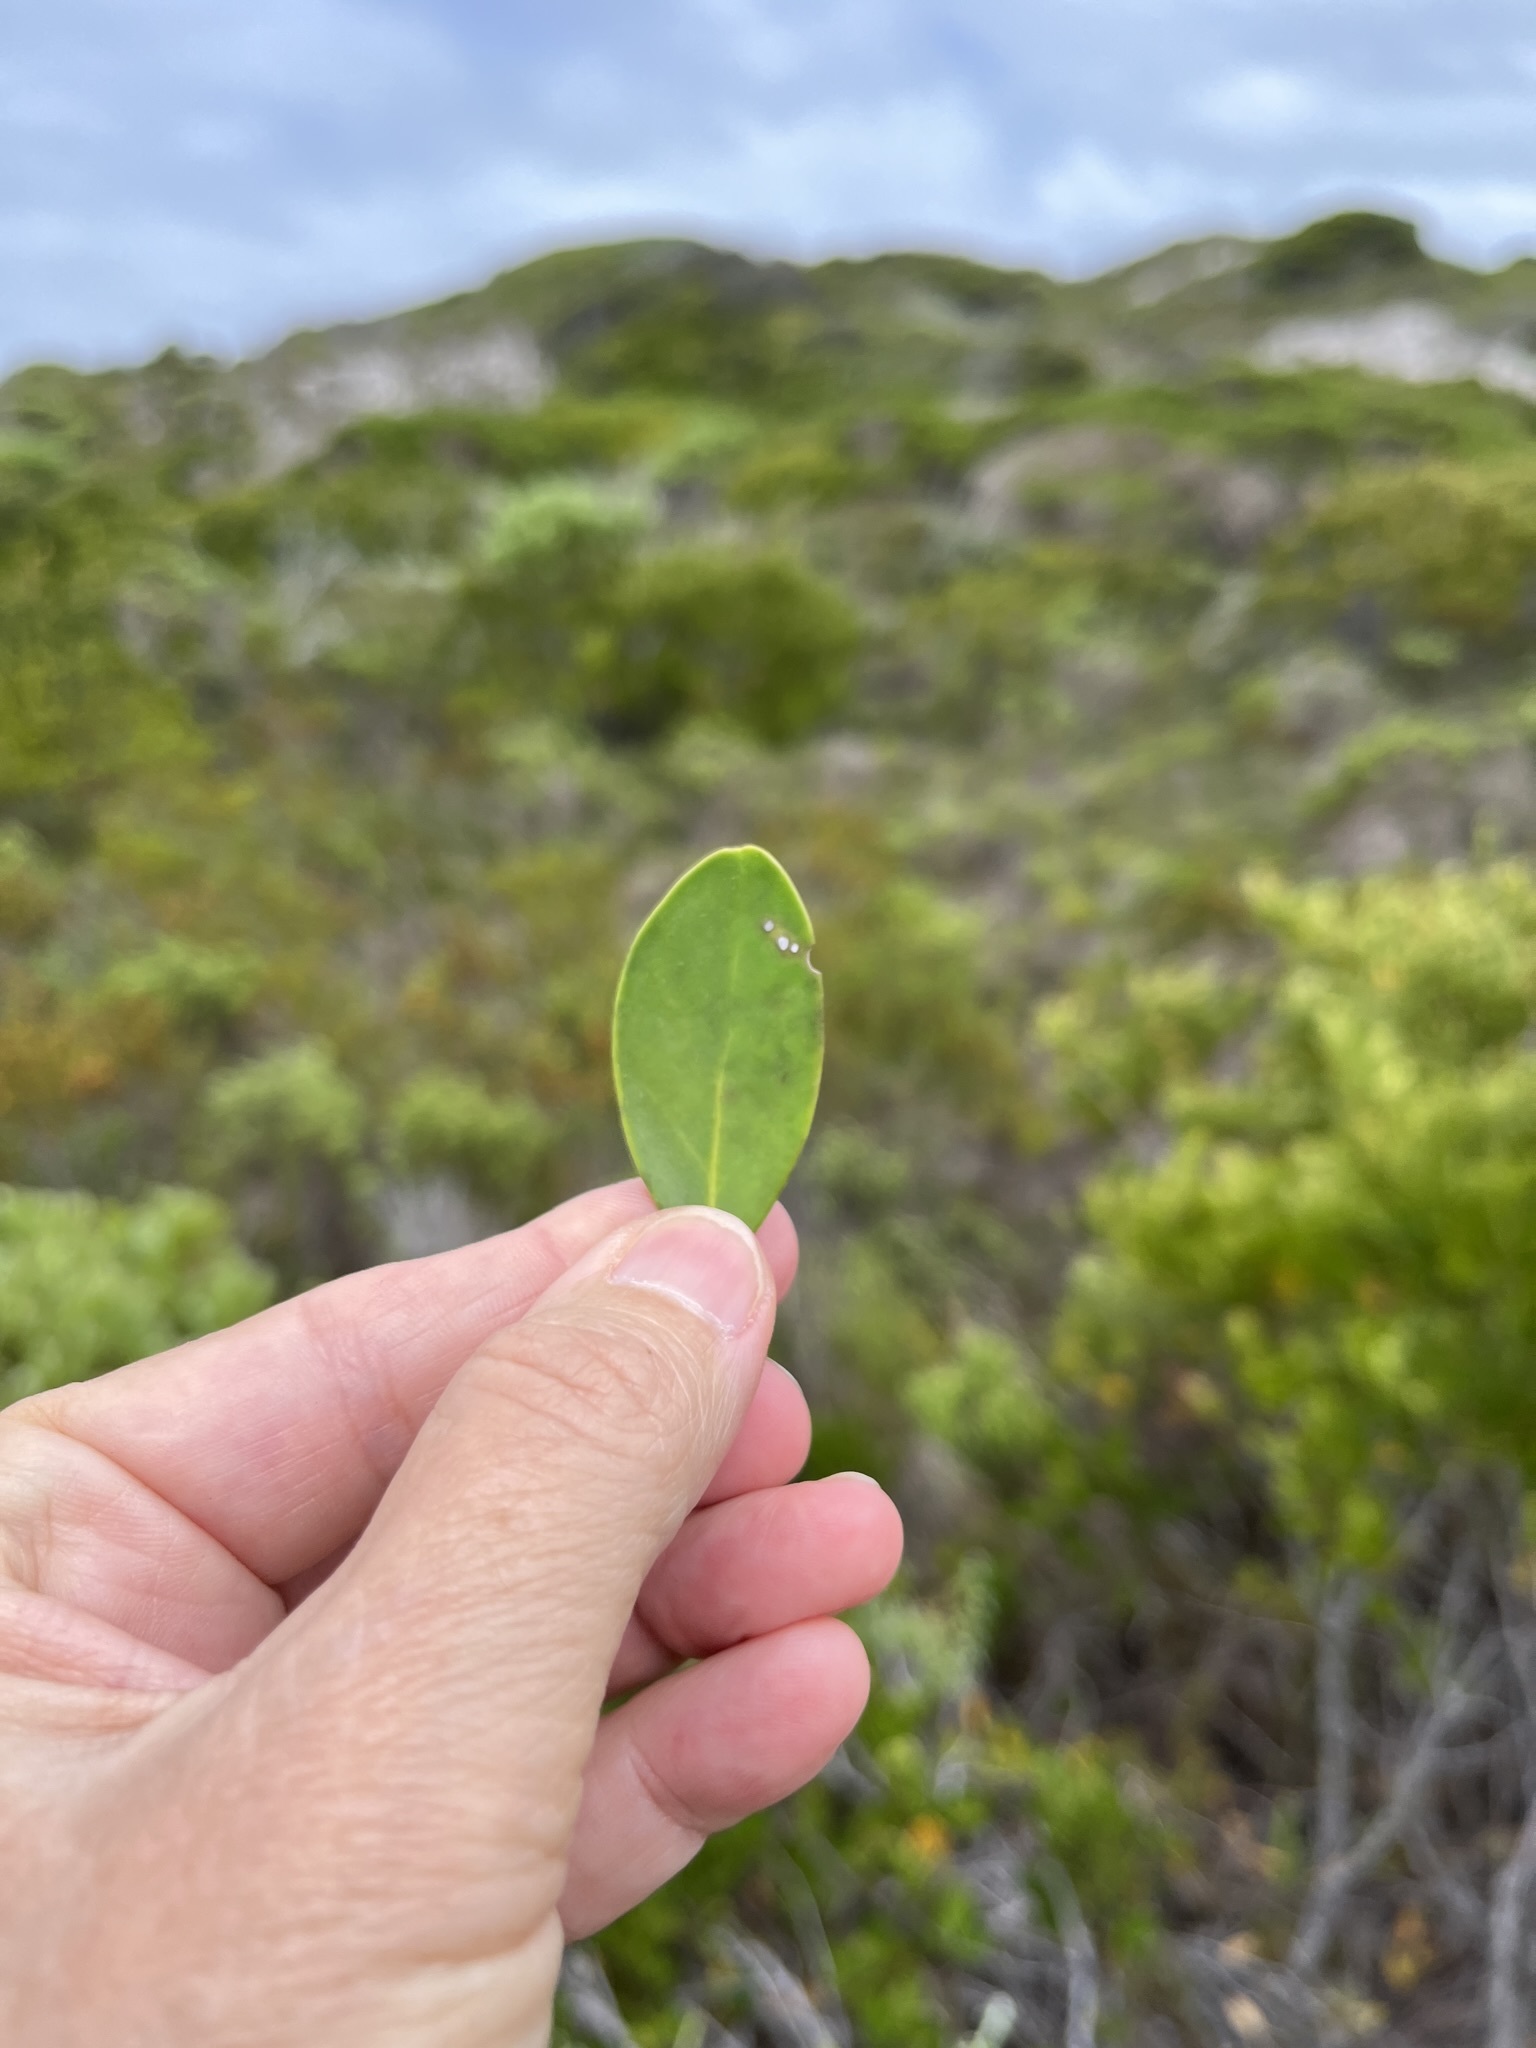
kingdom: Plantae
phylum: Tracheophyta
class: Magnoliopsida
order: Celastrales
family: Celastraceae
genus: Pterocelastrus
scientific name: Pterocelastrus tricuspidatus
